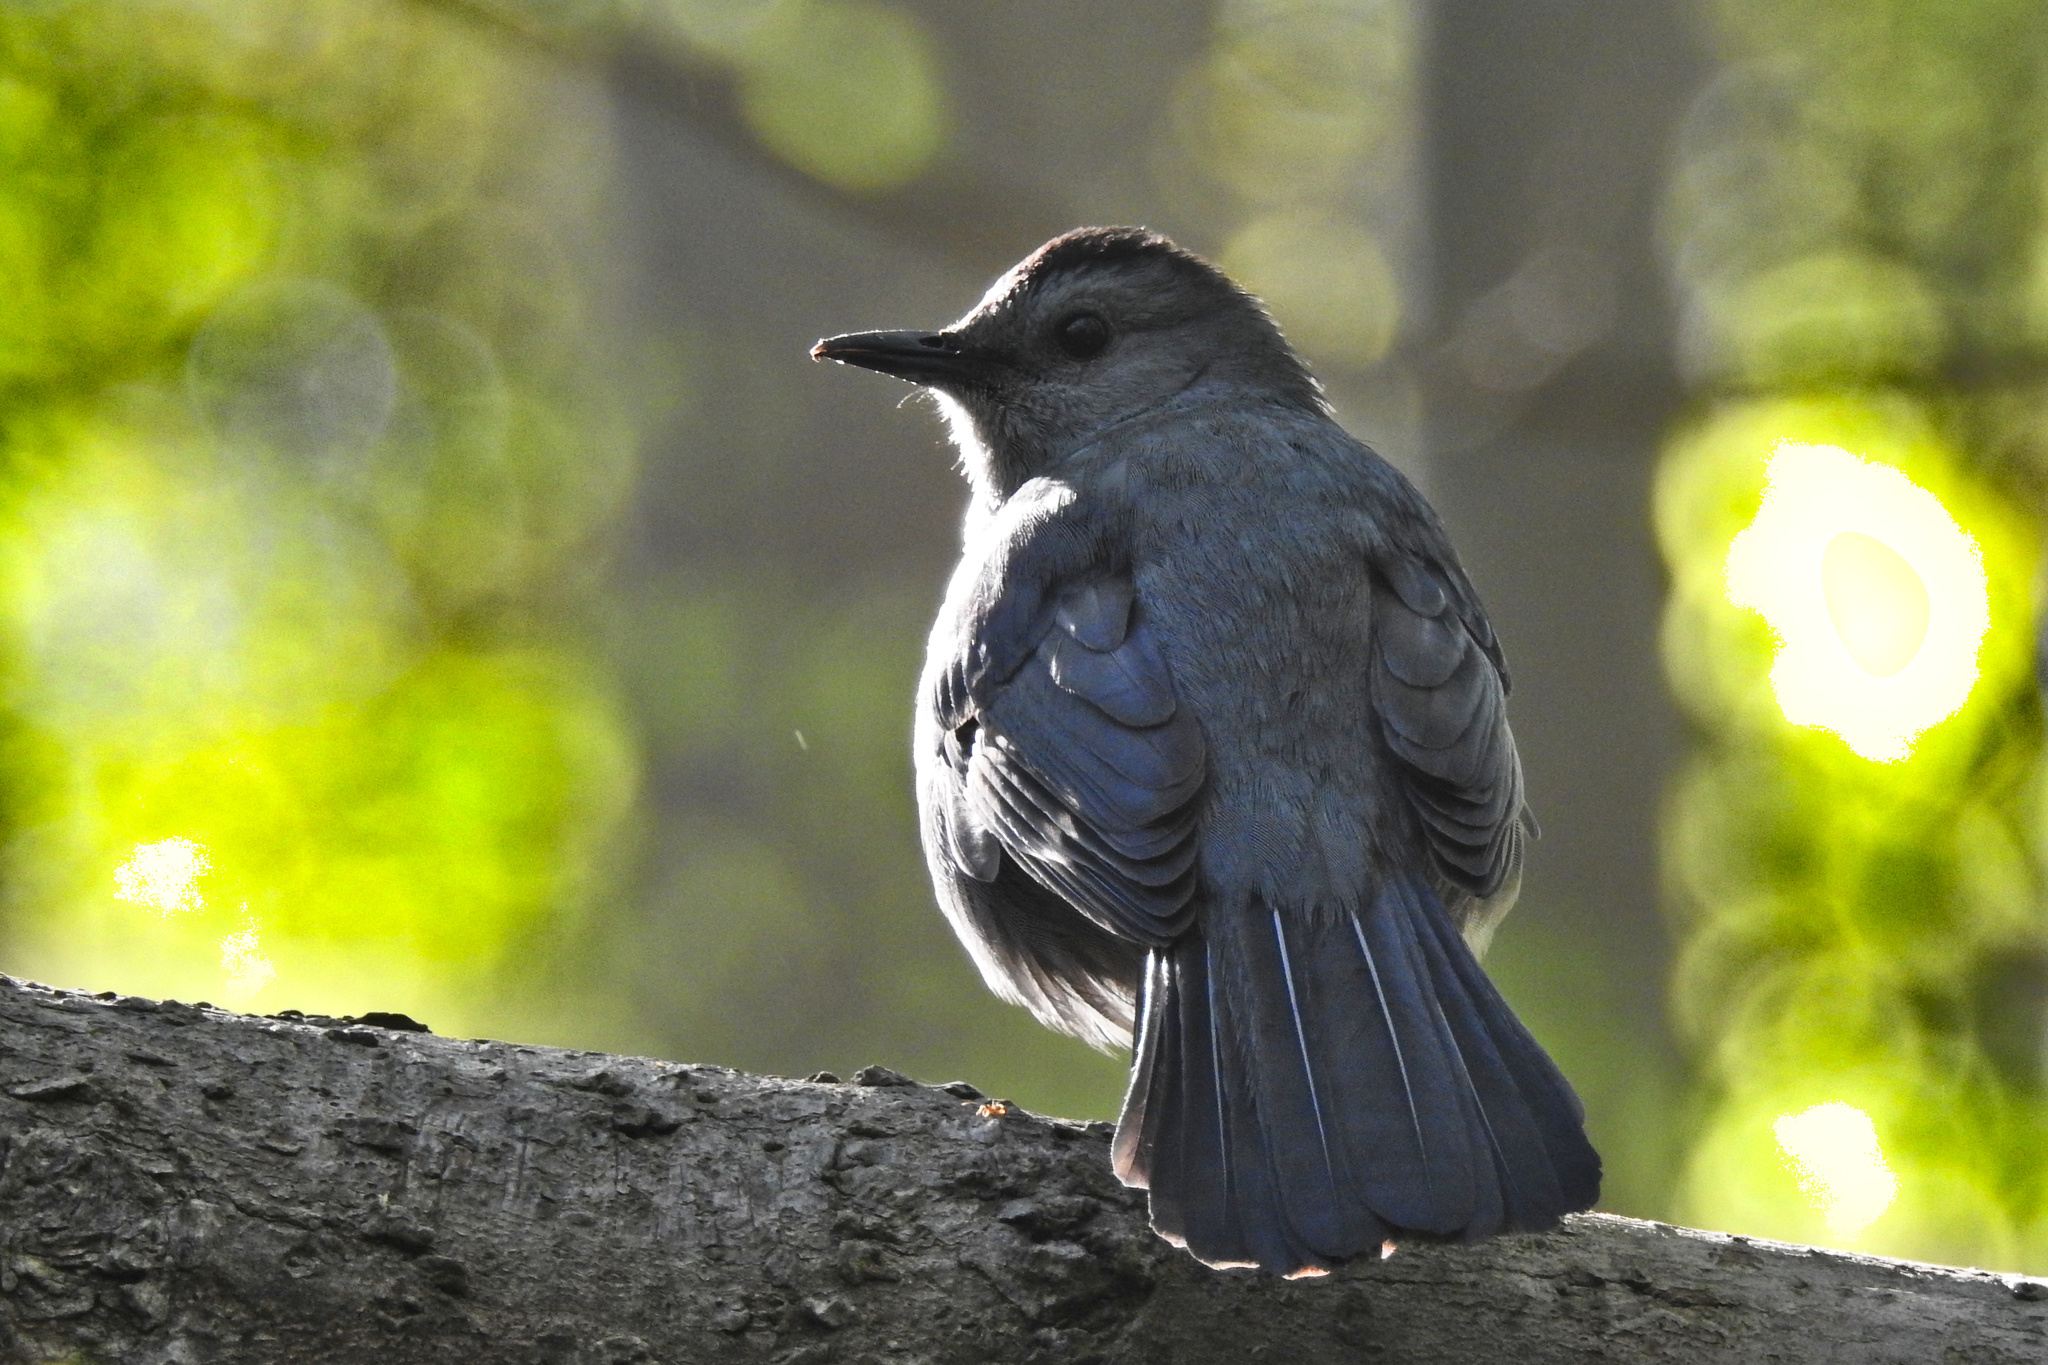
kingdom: Animalia
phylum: Chordata
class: Aves
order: Passeriformes
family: Mimidae
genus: Dumetella
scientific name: Dumetella carolinensis
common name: Gray catbird
